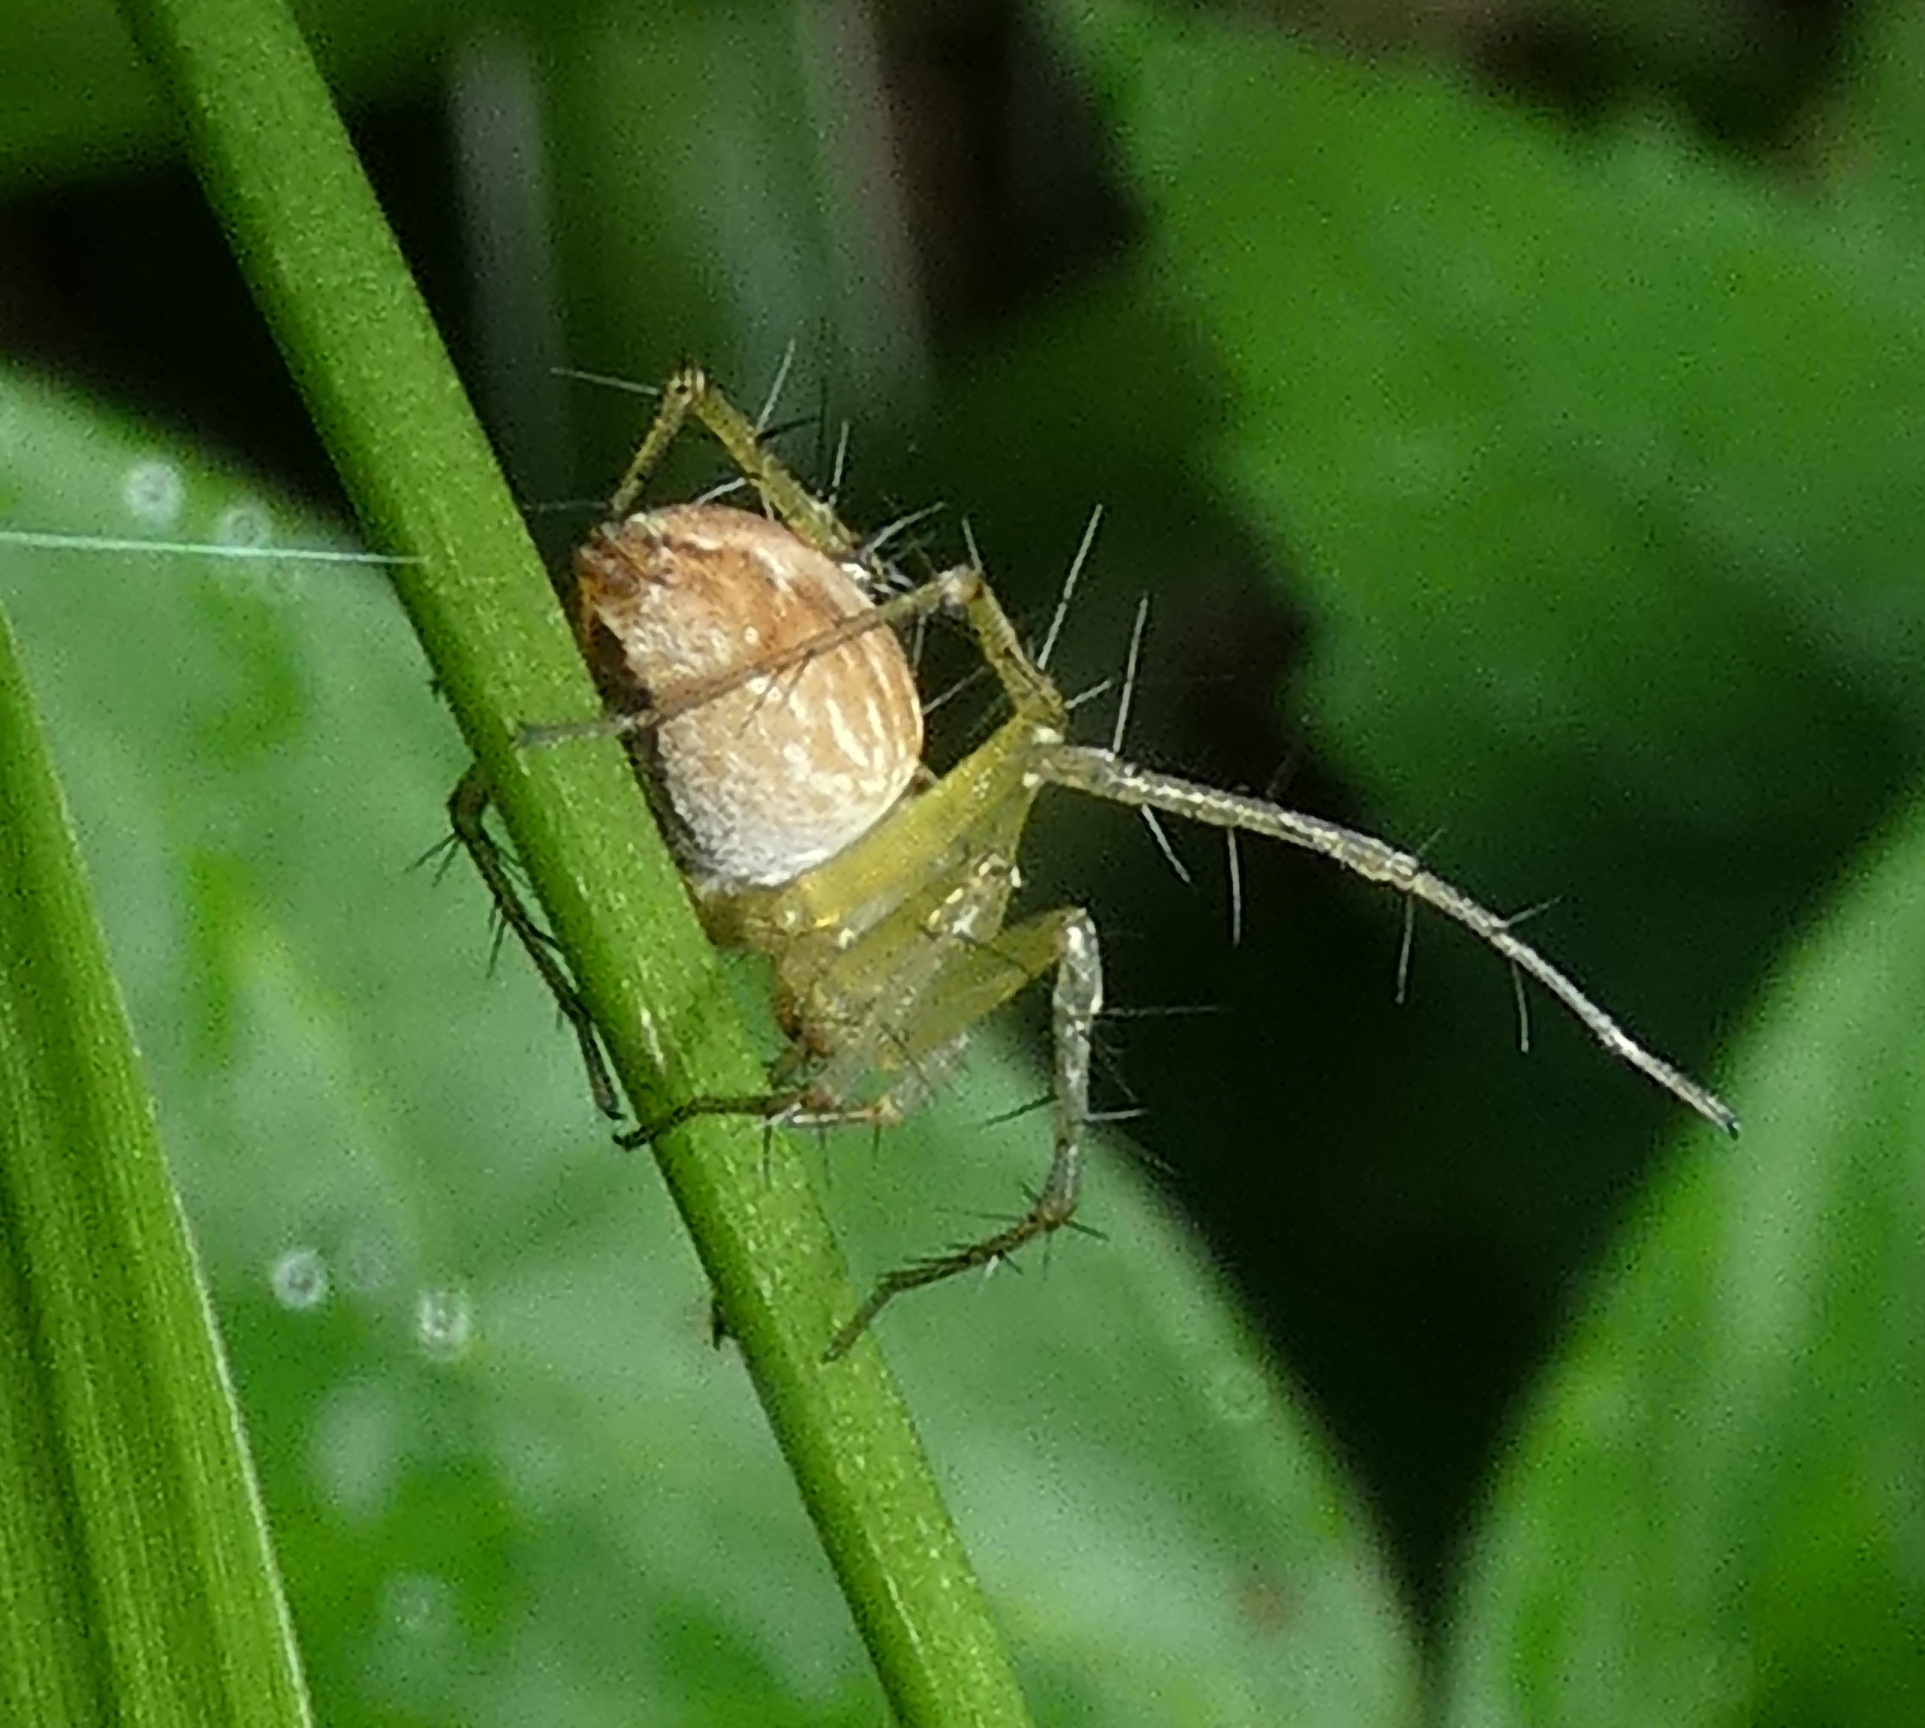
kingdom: Animalia
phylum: Arthropoda
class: Arachnida
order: Araneae
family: Oxyopidae
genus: Oxyopes
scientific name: Oxyopes salticus
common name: Lynx spiders
